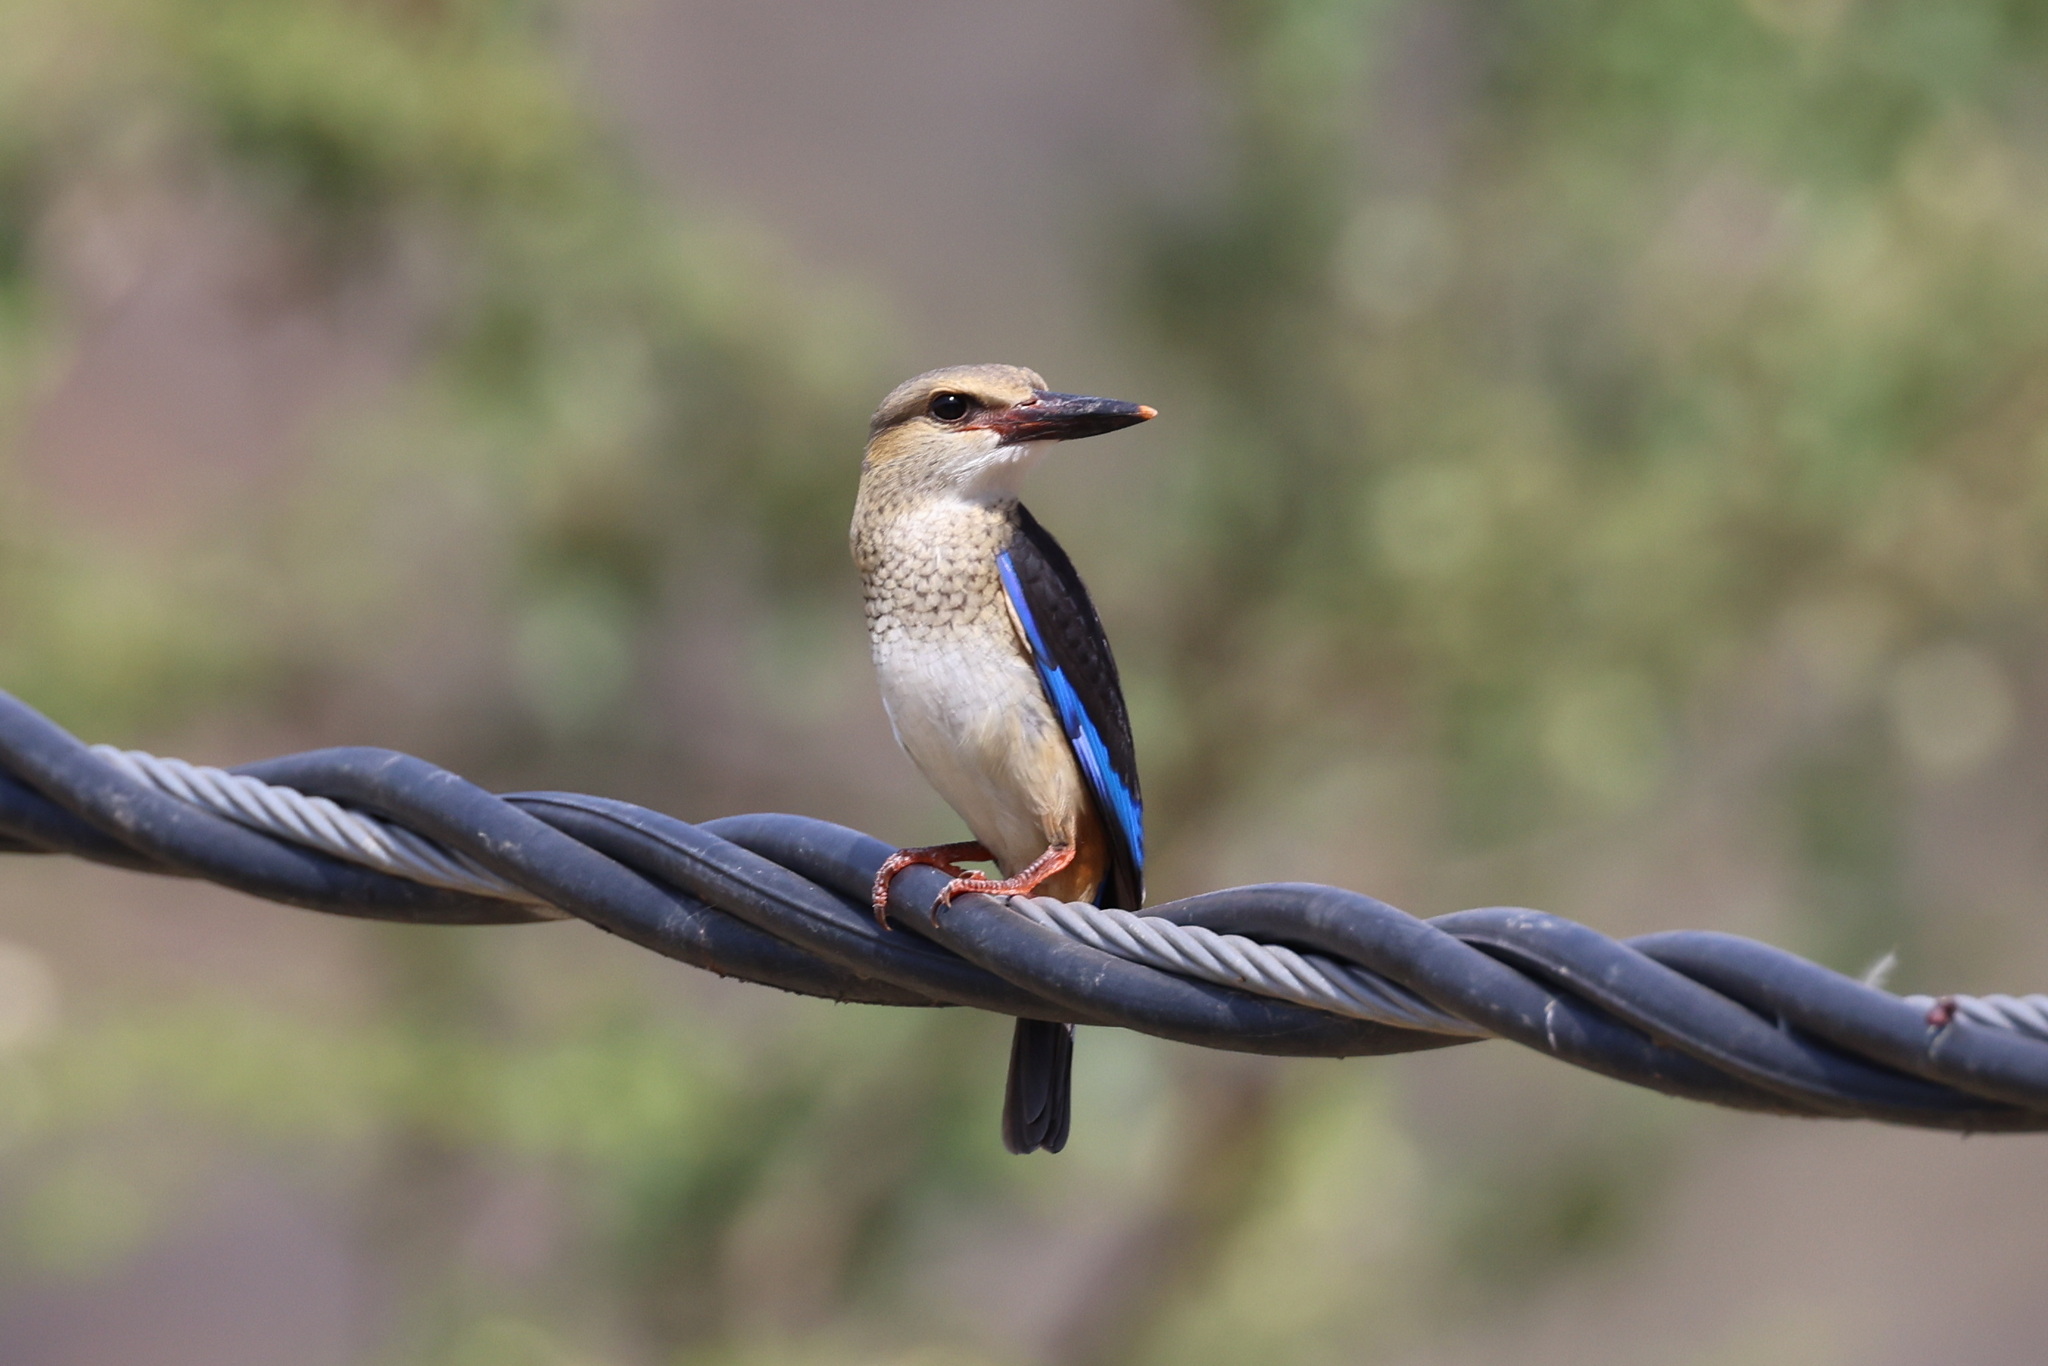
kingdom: Animalia
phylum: Chordata
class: Aves
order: Coraciiformes
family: Alcedinidae
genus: Halcyon
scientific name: Halcyon leucocephala
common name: Grey-headed kingfisher
